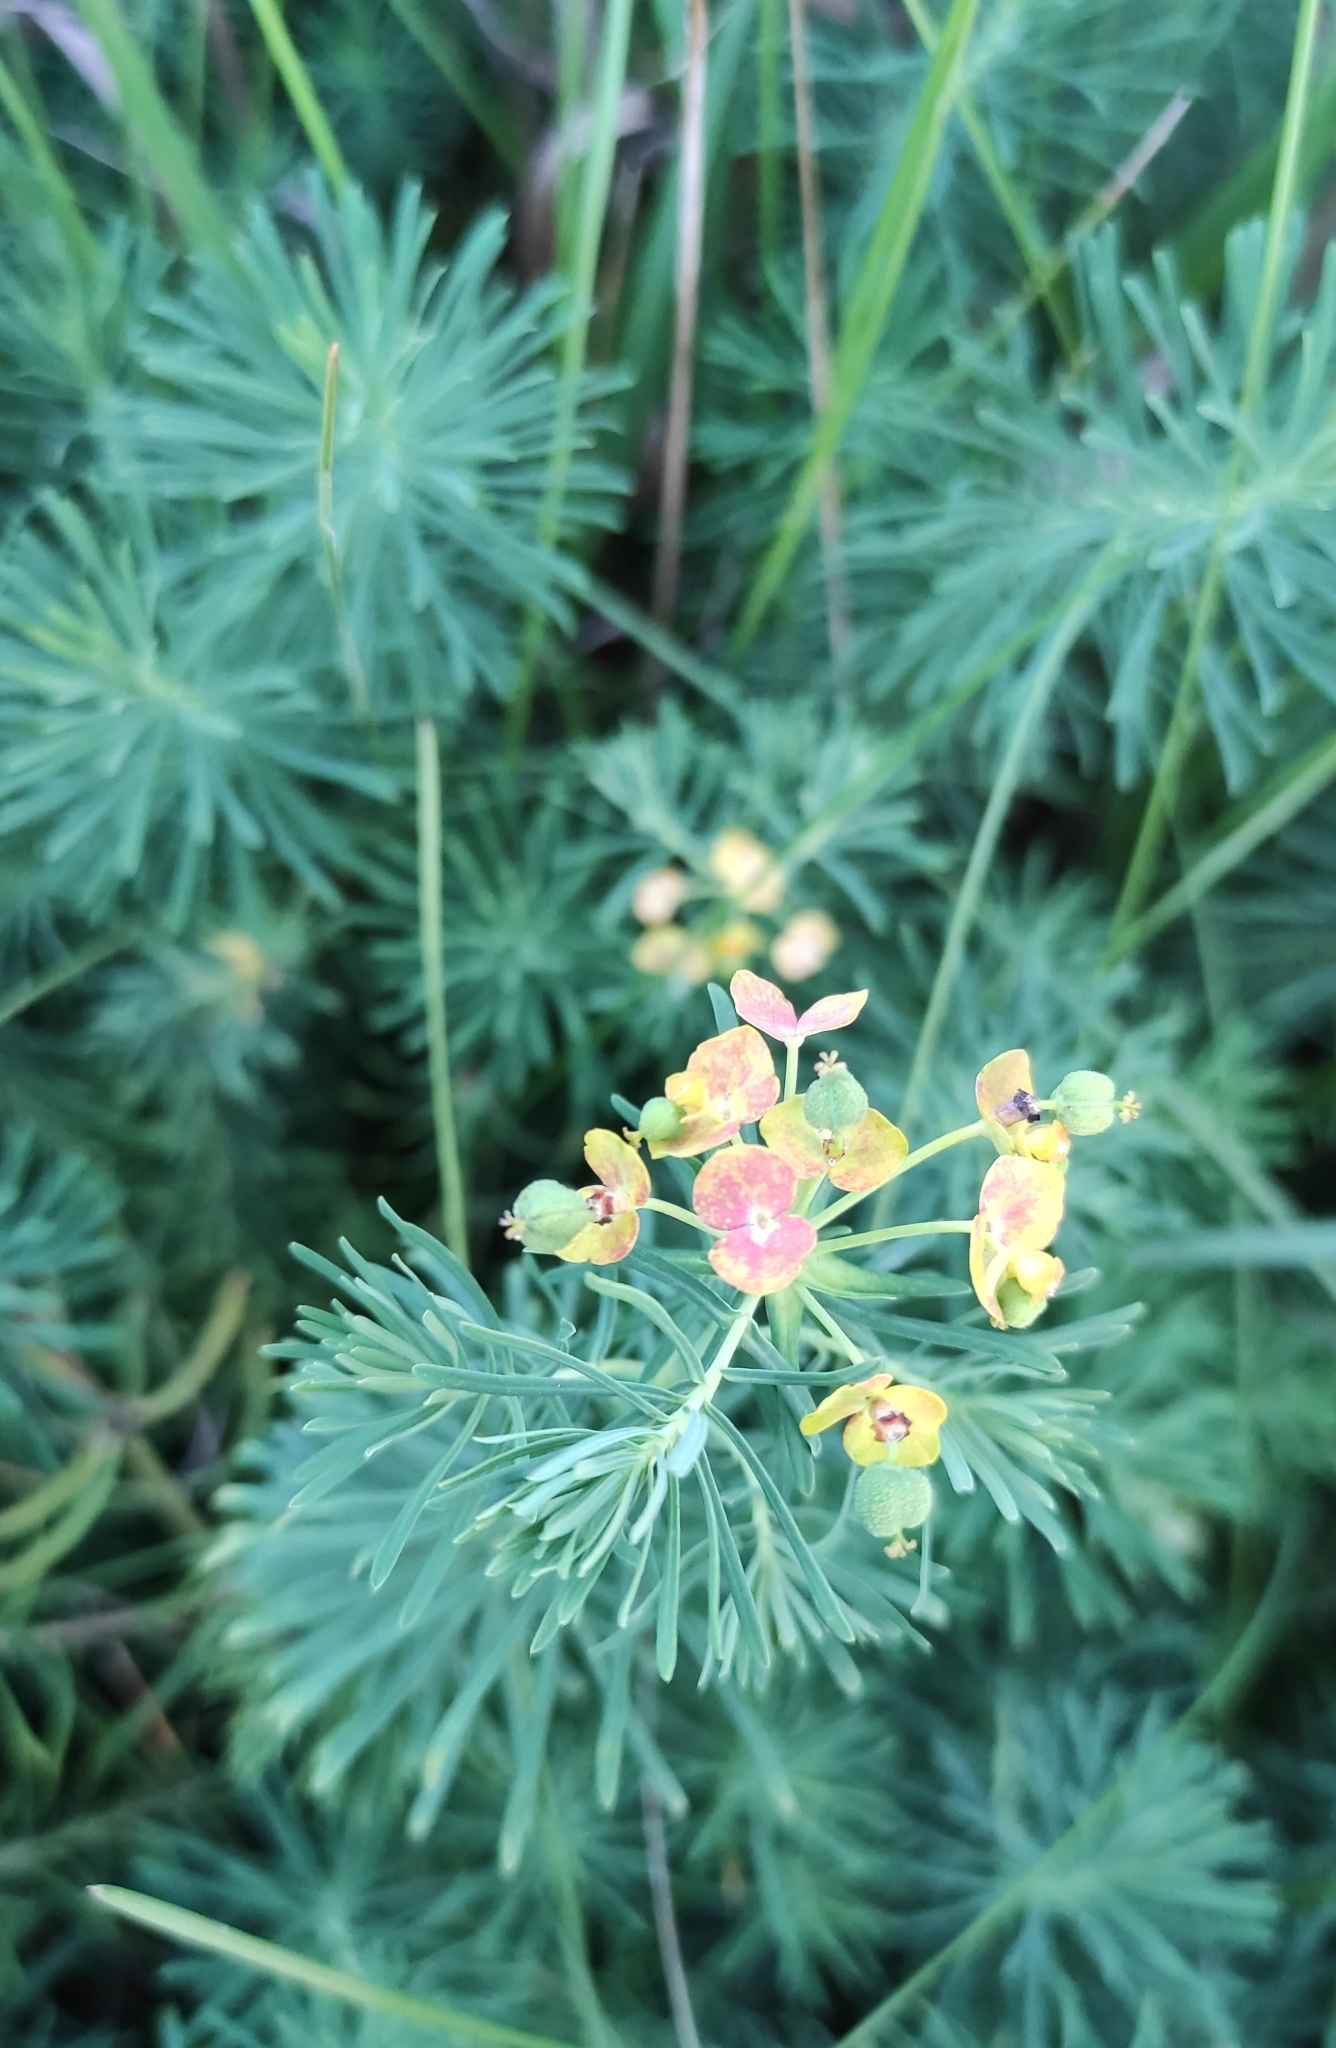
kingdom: Plantae
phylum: Tracheophyta
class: Magnoliopsida
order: Malpighiales
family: Euphorbiaceae
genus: Euphorbia
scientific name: Euphorbia cyparissias
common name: Cypress spurge
